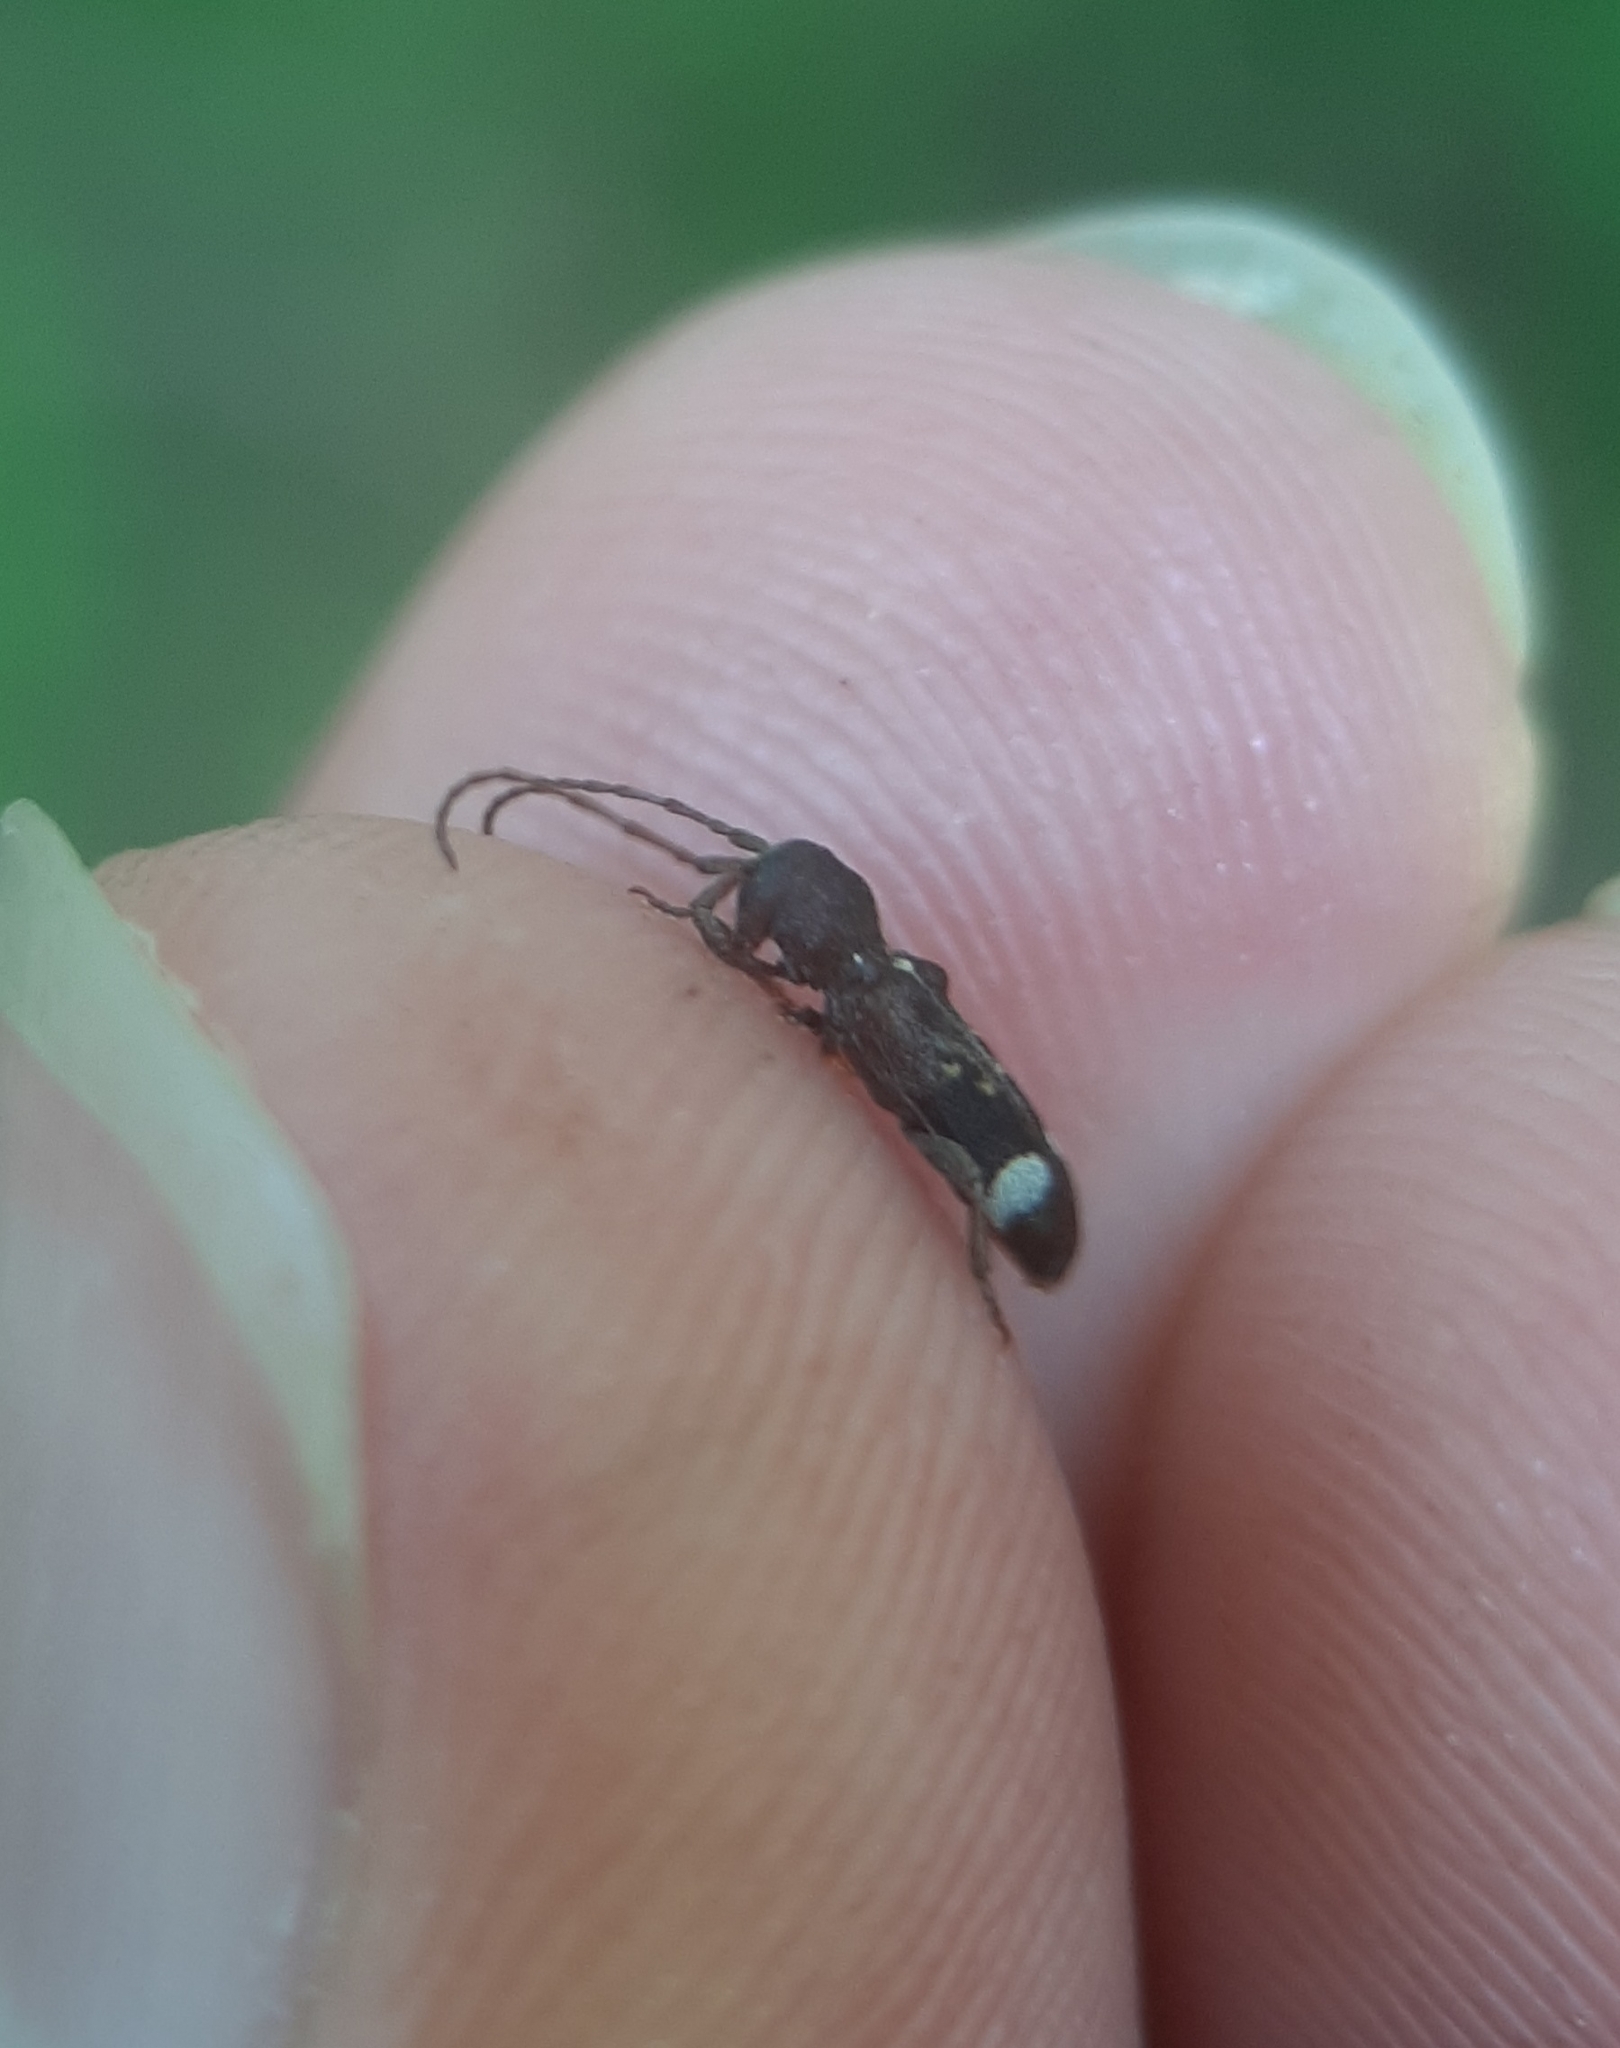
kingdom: Animalia
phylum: Arthropoda
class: Insecta
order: Coleoptera
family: Cerambycidae
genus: Psenocerus
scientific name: Psenocerus supernotatus
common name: Currant-tip borer
